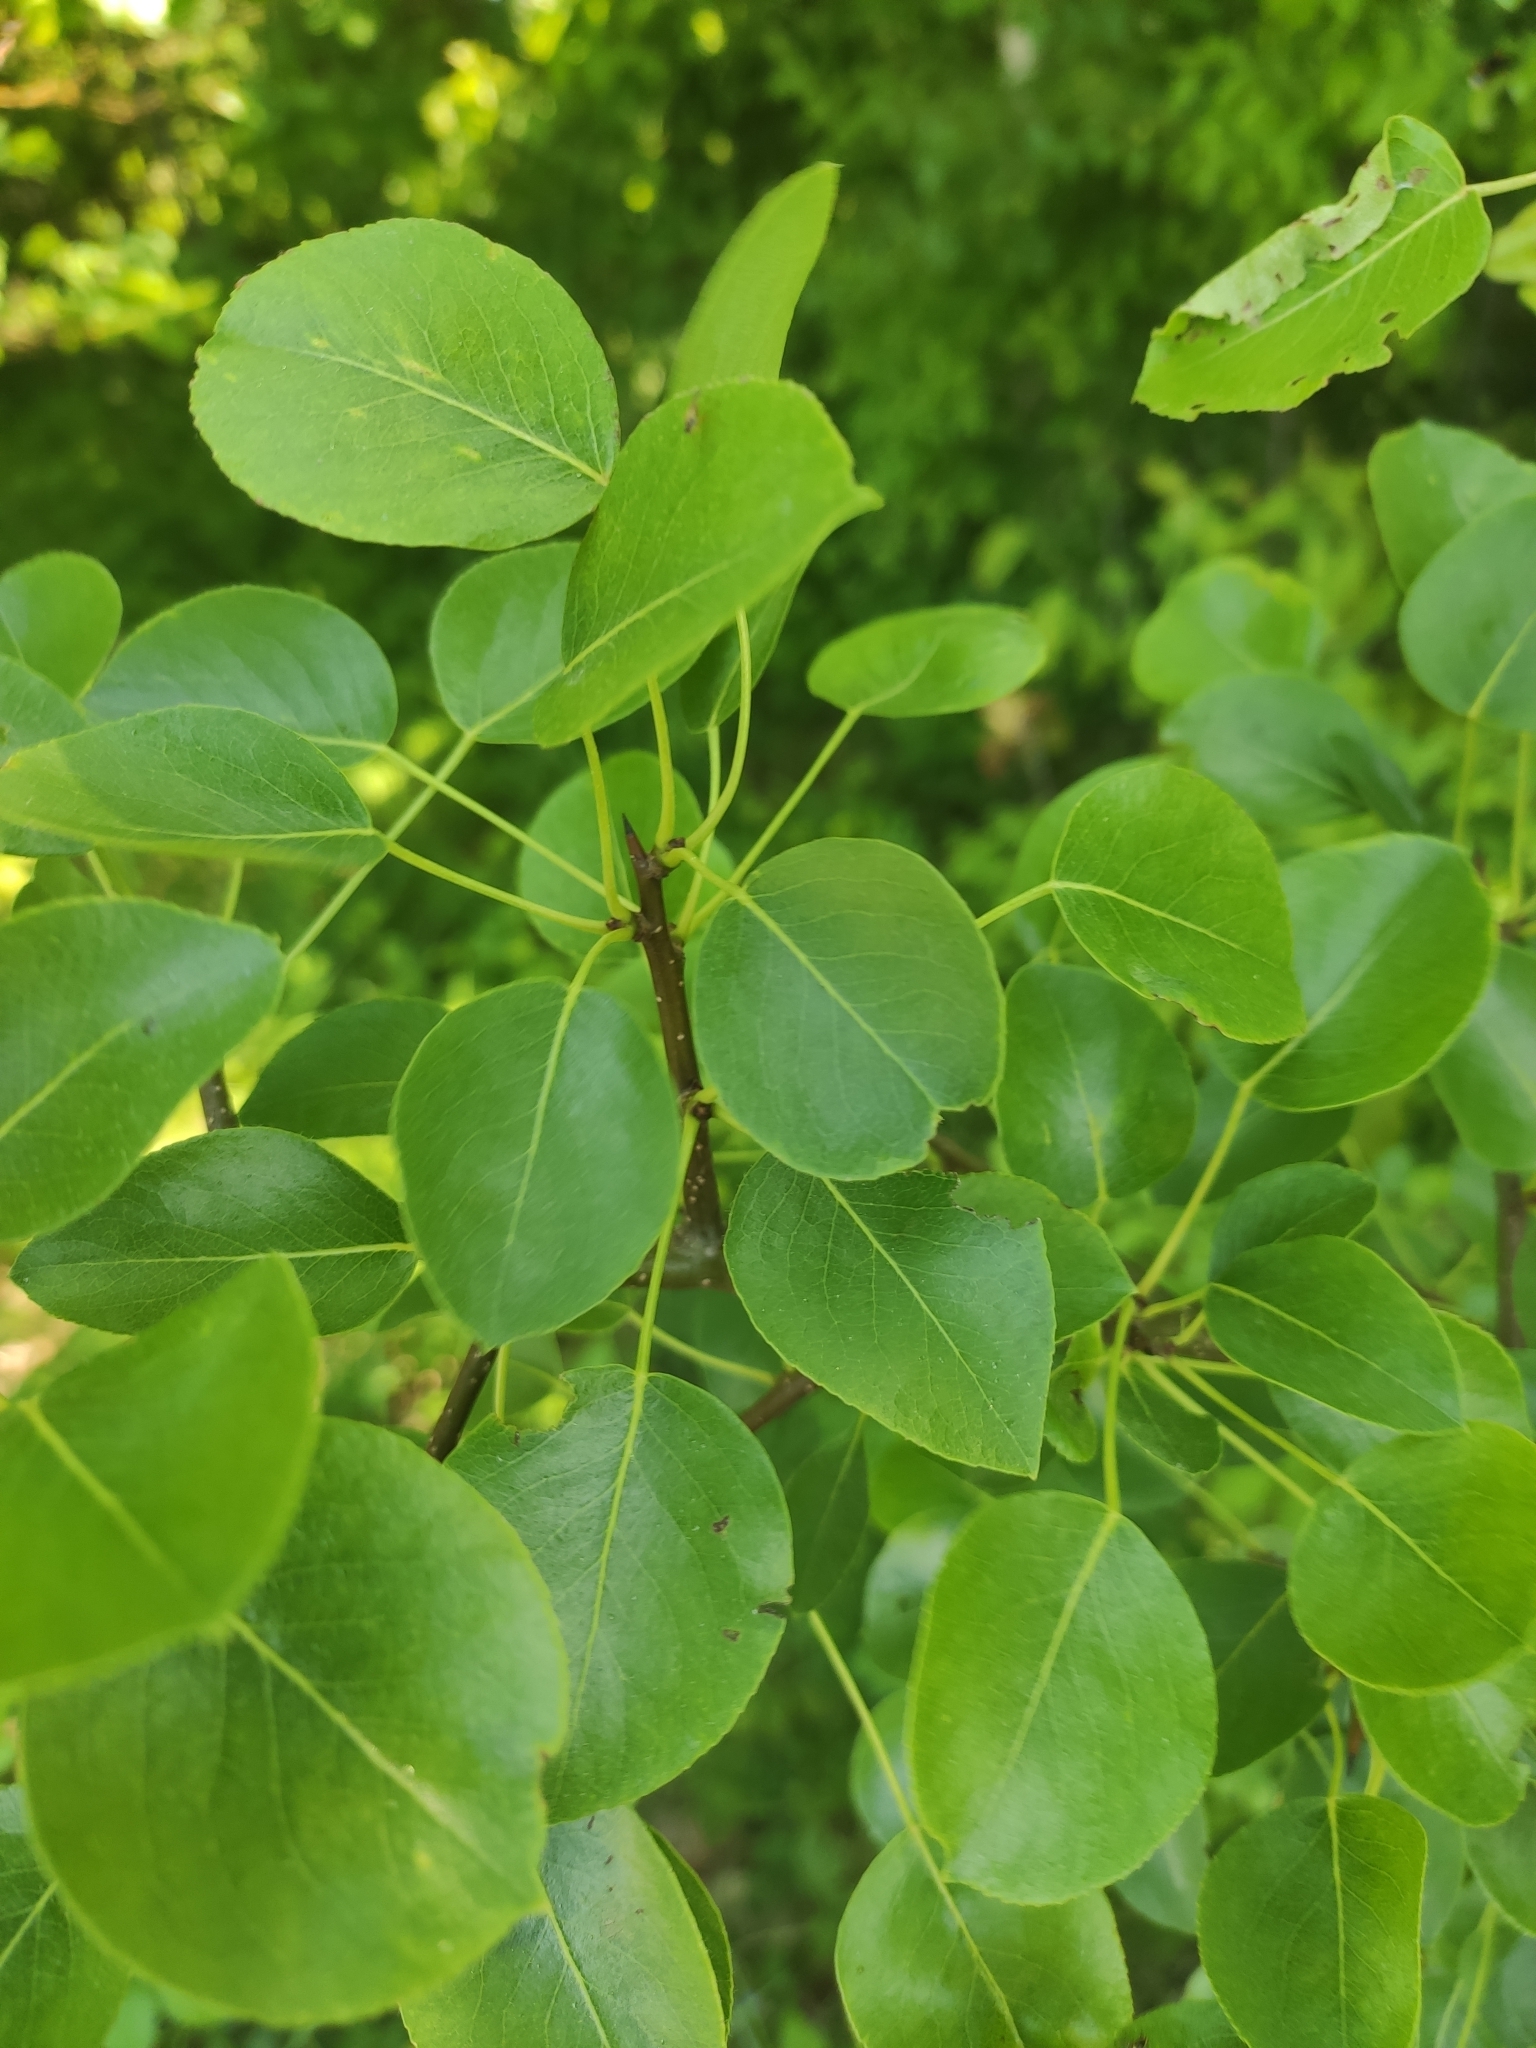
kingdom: Plantae
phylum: Tracheophyta
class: Magnoliopsida
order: Rosales
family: Rosaceae
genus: Pyrus
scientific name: Pyrus communis
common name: Pear
